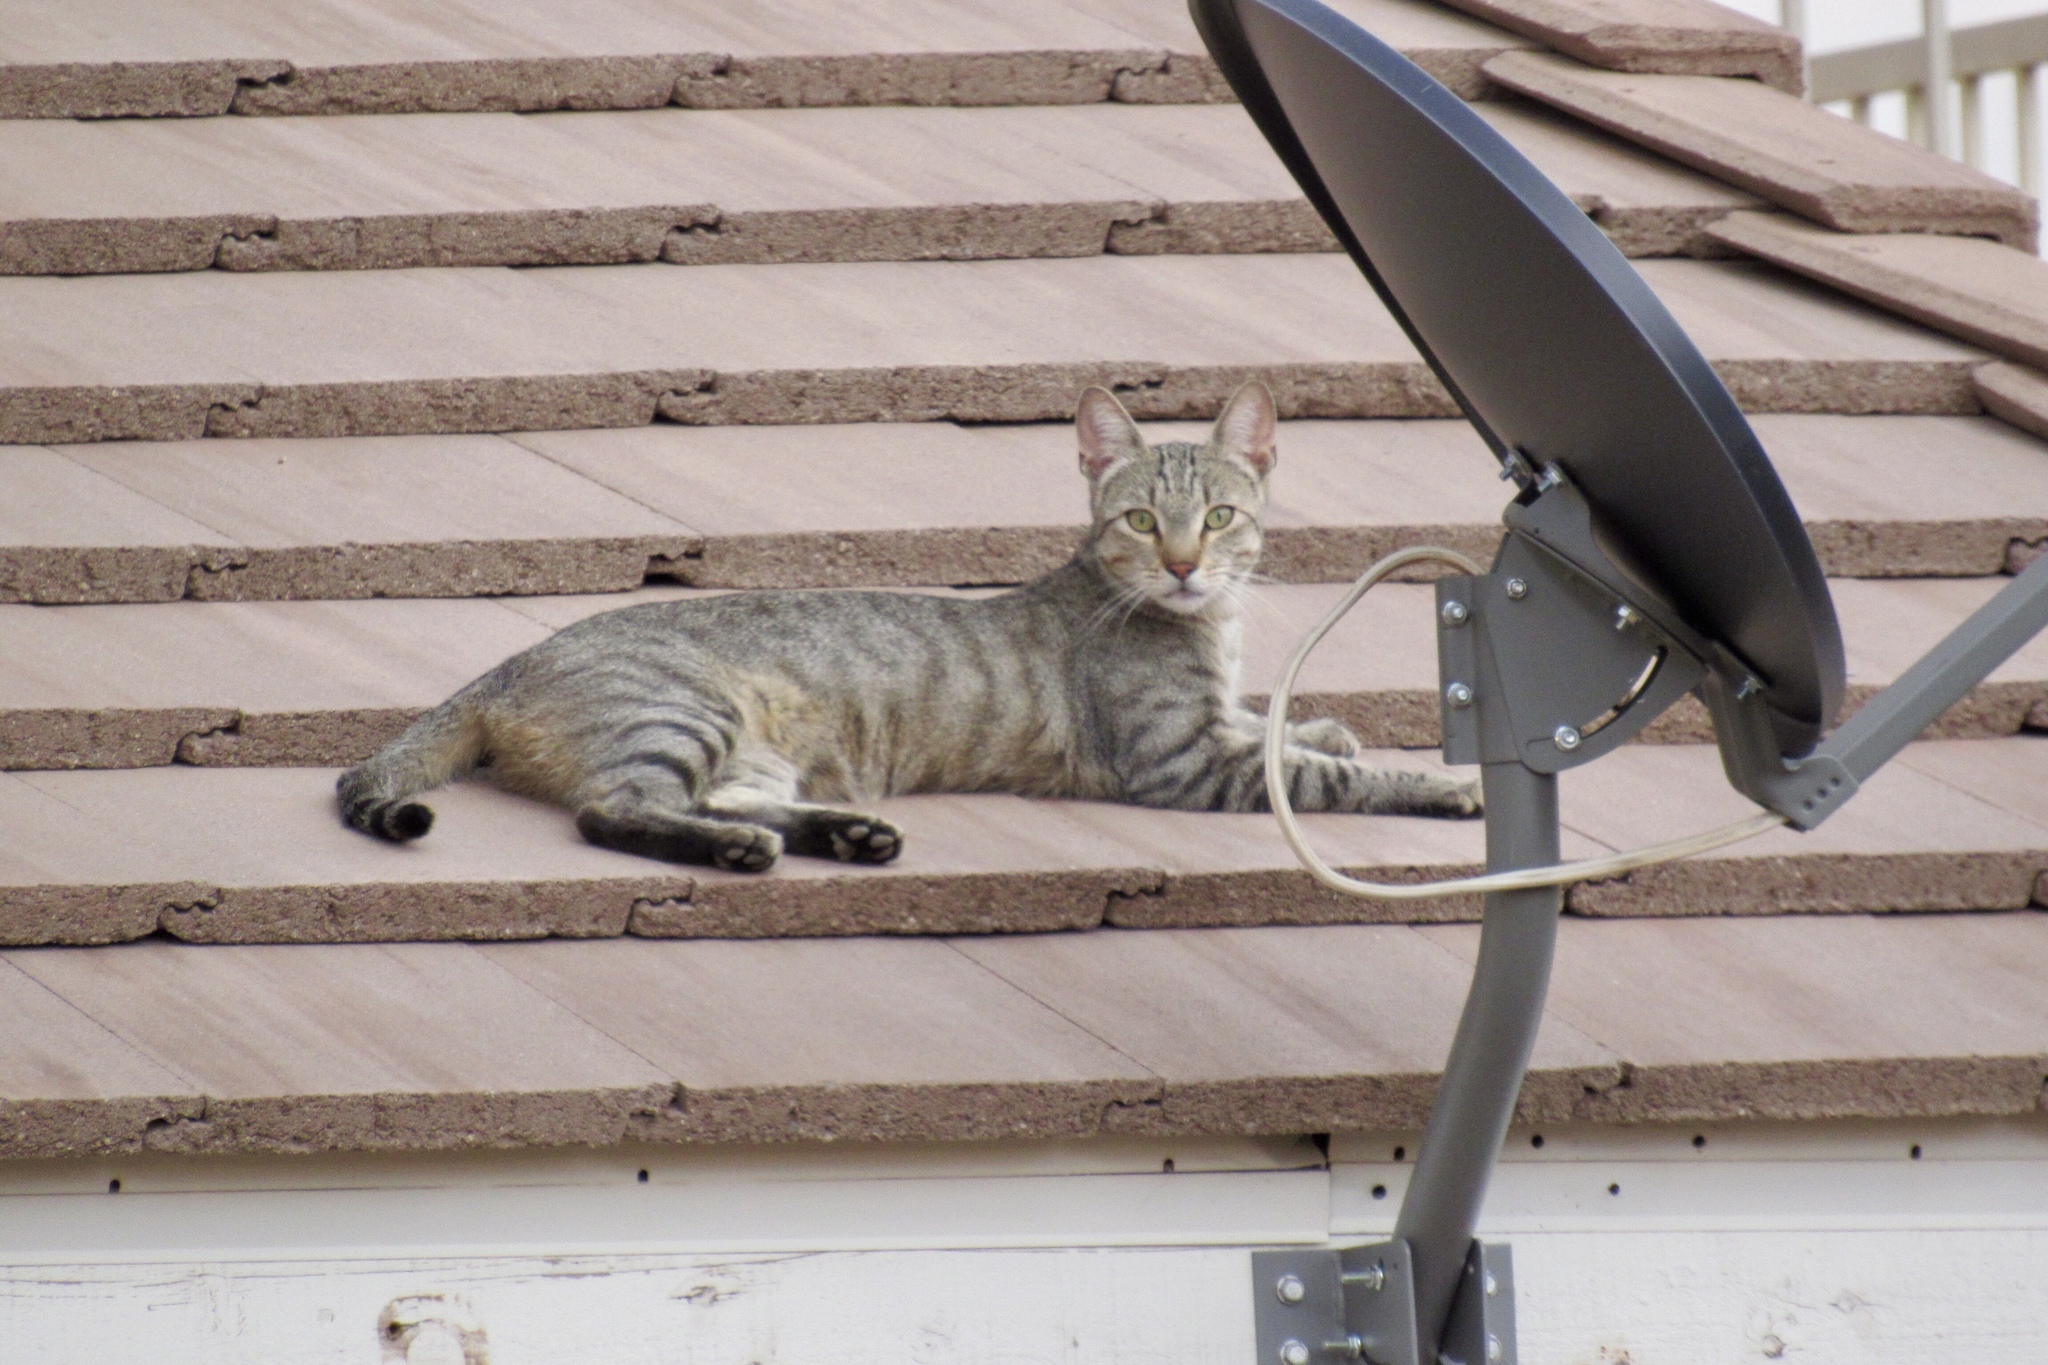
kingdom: Animalia
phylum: Chordata
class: Mammalia
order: Carnivora
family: Felidae
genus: Felis
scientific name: Felis catus
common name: Domestic cat
